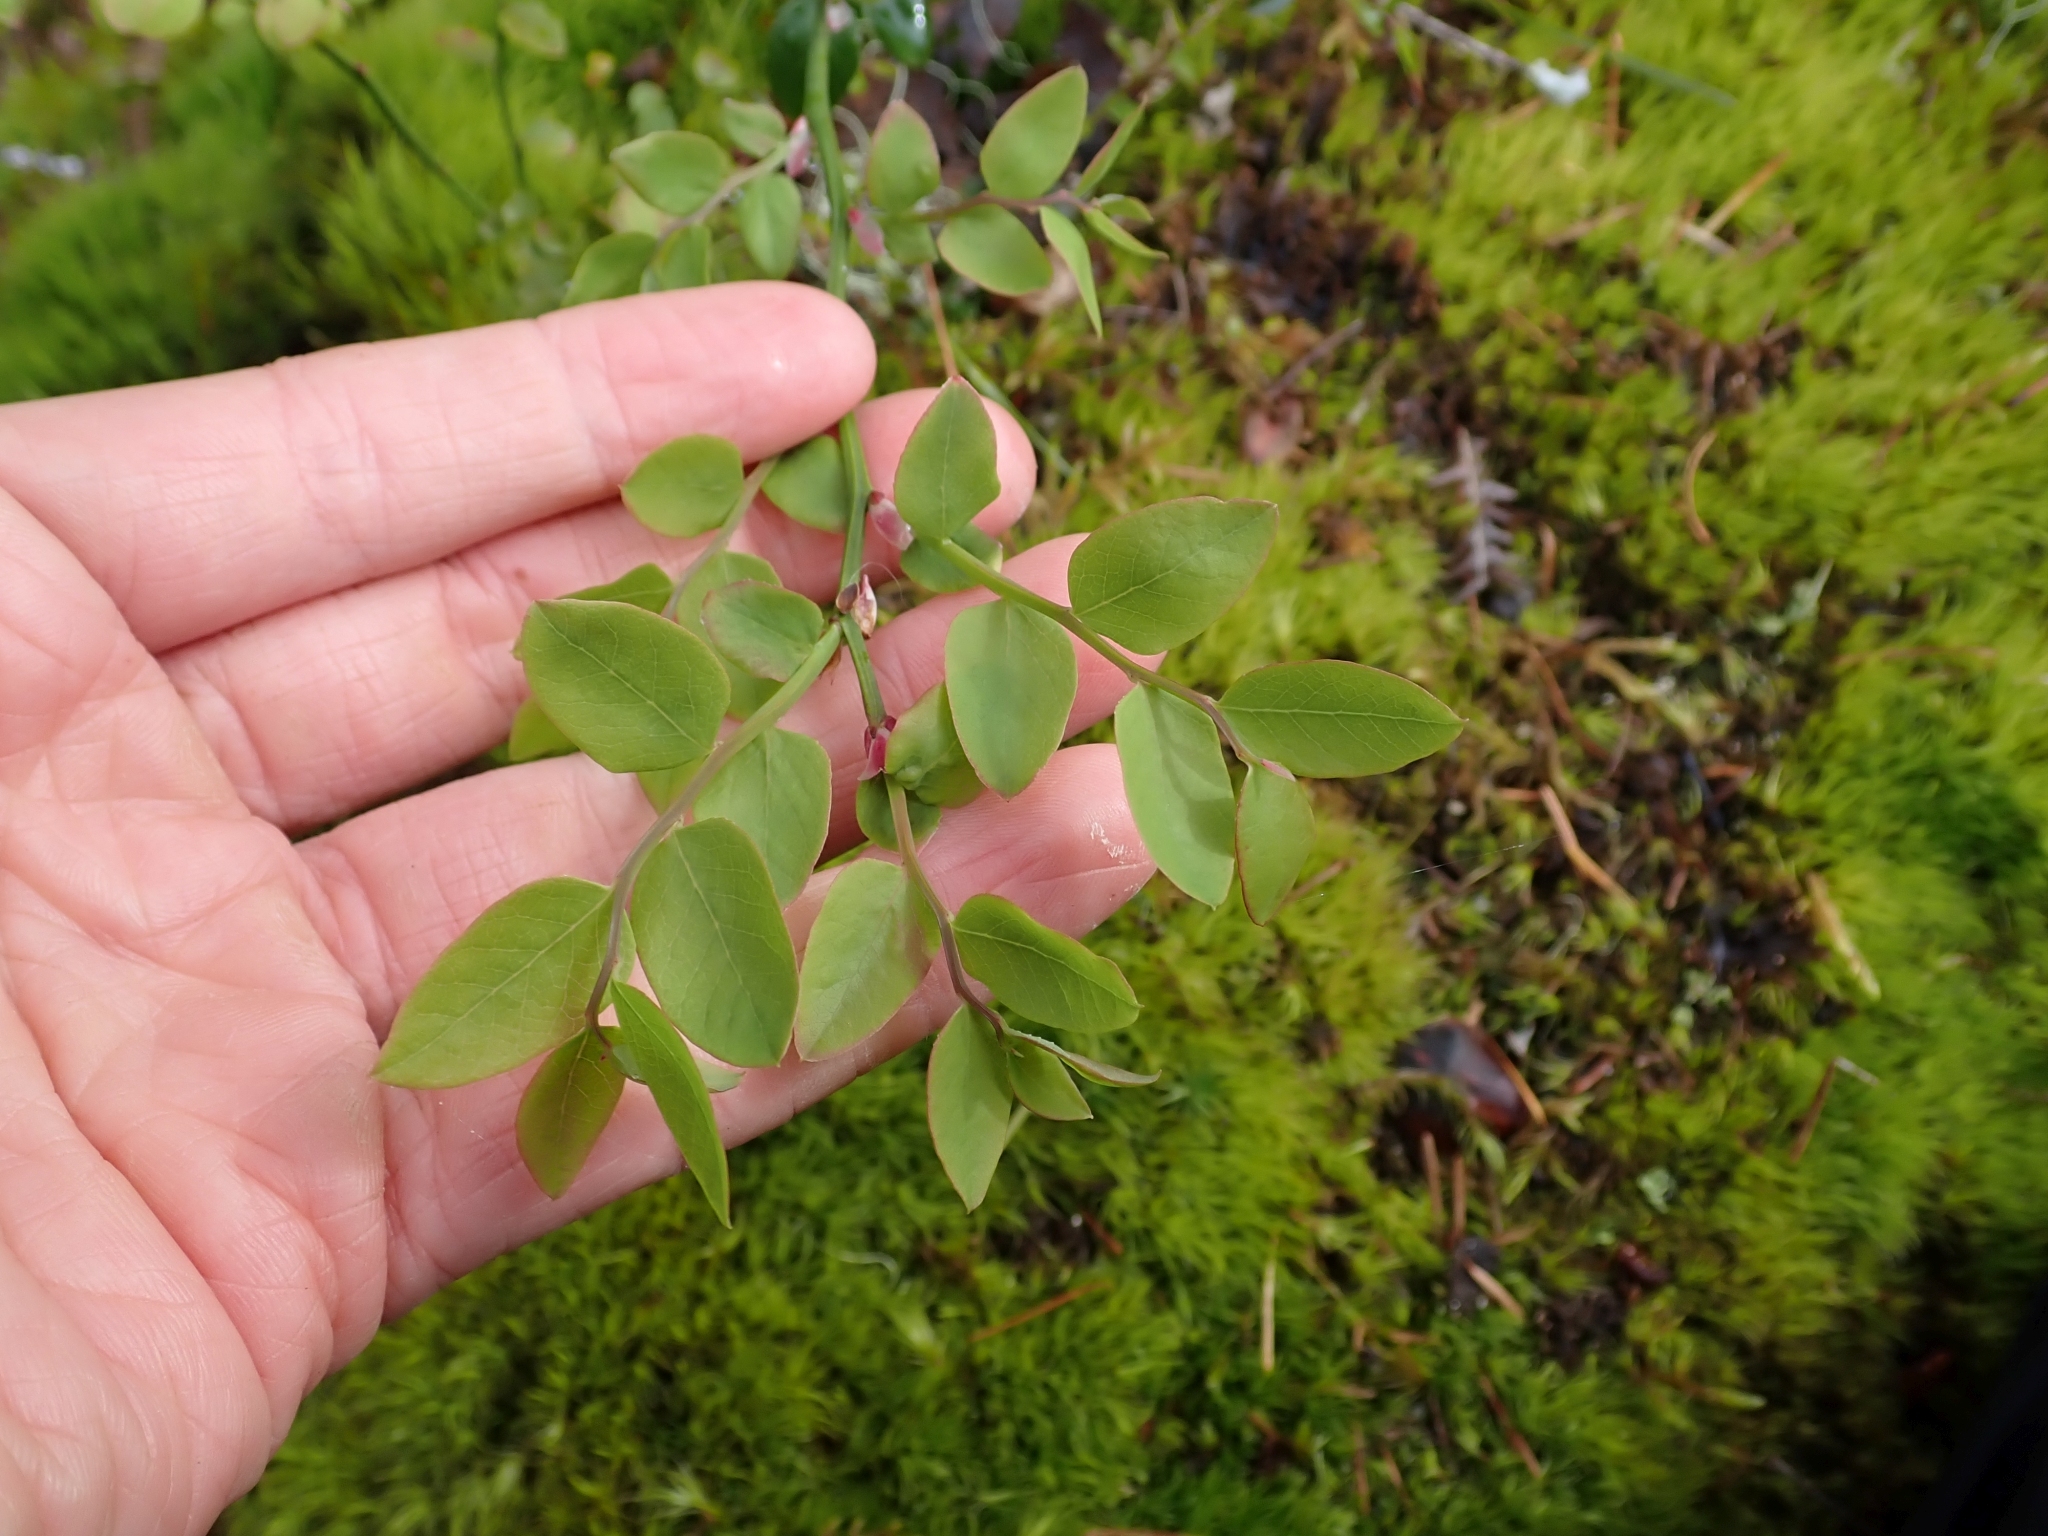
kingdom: Plantae
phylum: Tracheophyta
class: Magnoliopsida
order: Ericales
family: Ericaceae
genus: Vaccinium
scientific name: Vaccinium parvifolium
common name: Red-huckleberry
